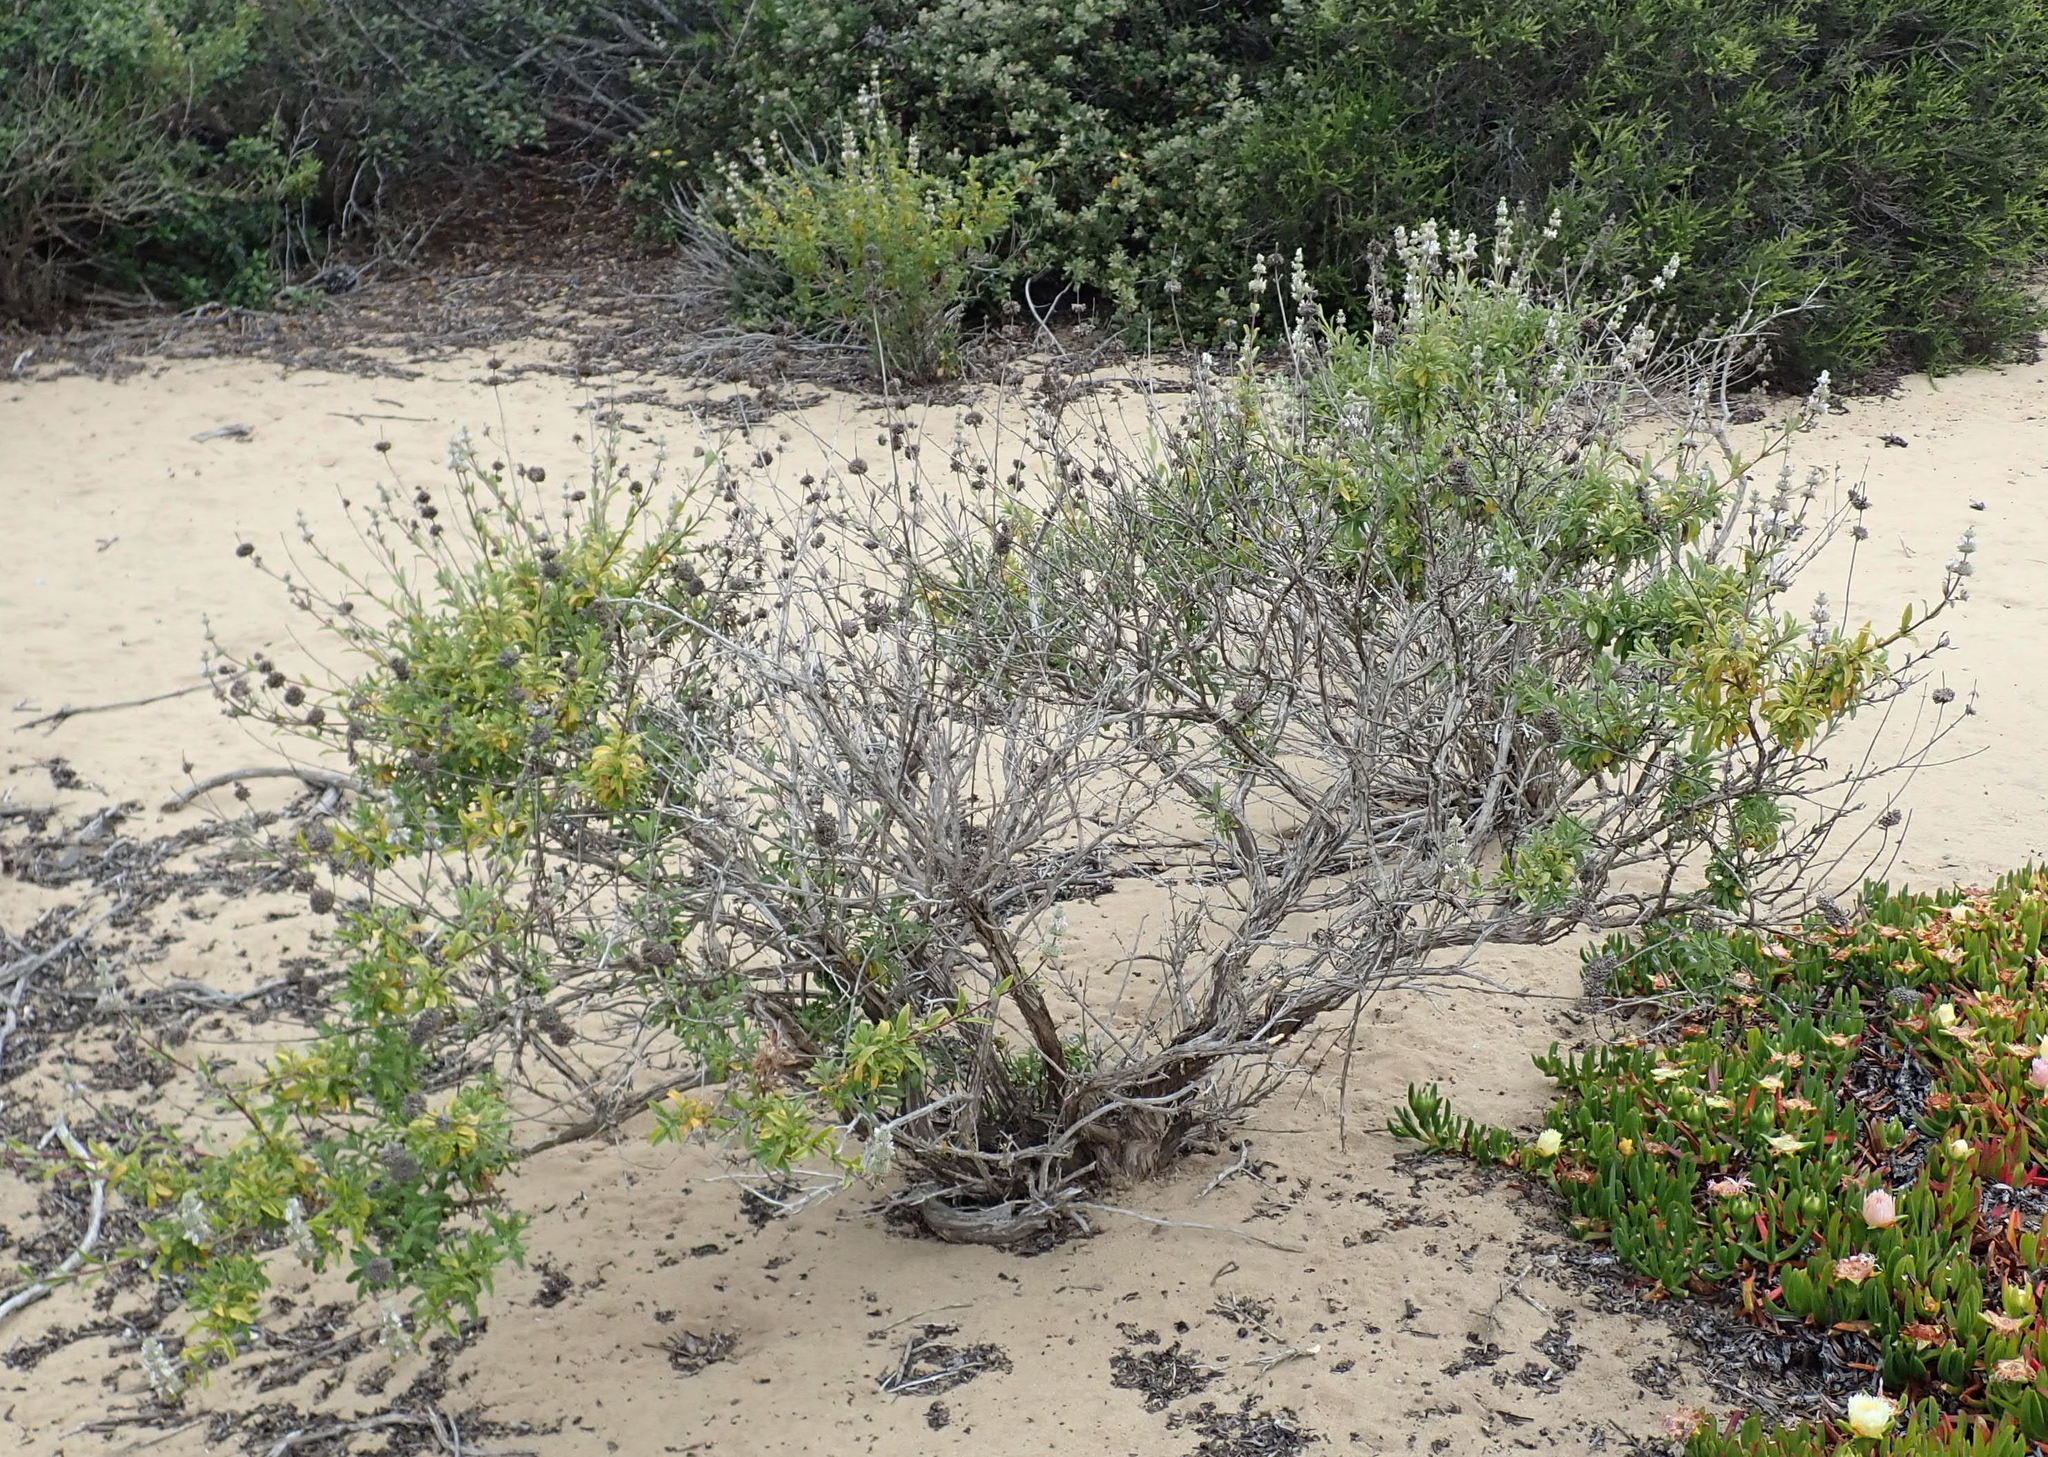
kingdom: Plantae
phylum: Tracheophyta
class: Magnoliopsida
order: Lamiales
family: Lamiaceae
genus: Salvia
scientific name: Salvia mellifera
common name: Black sage
